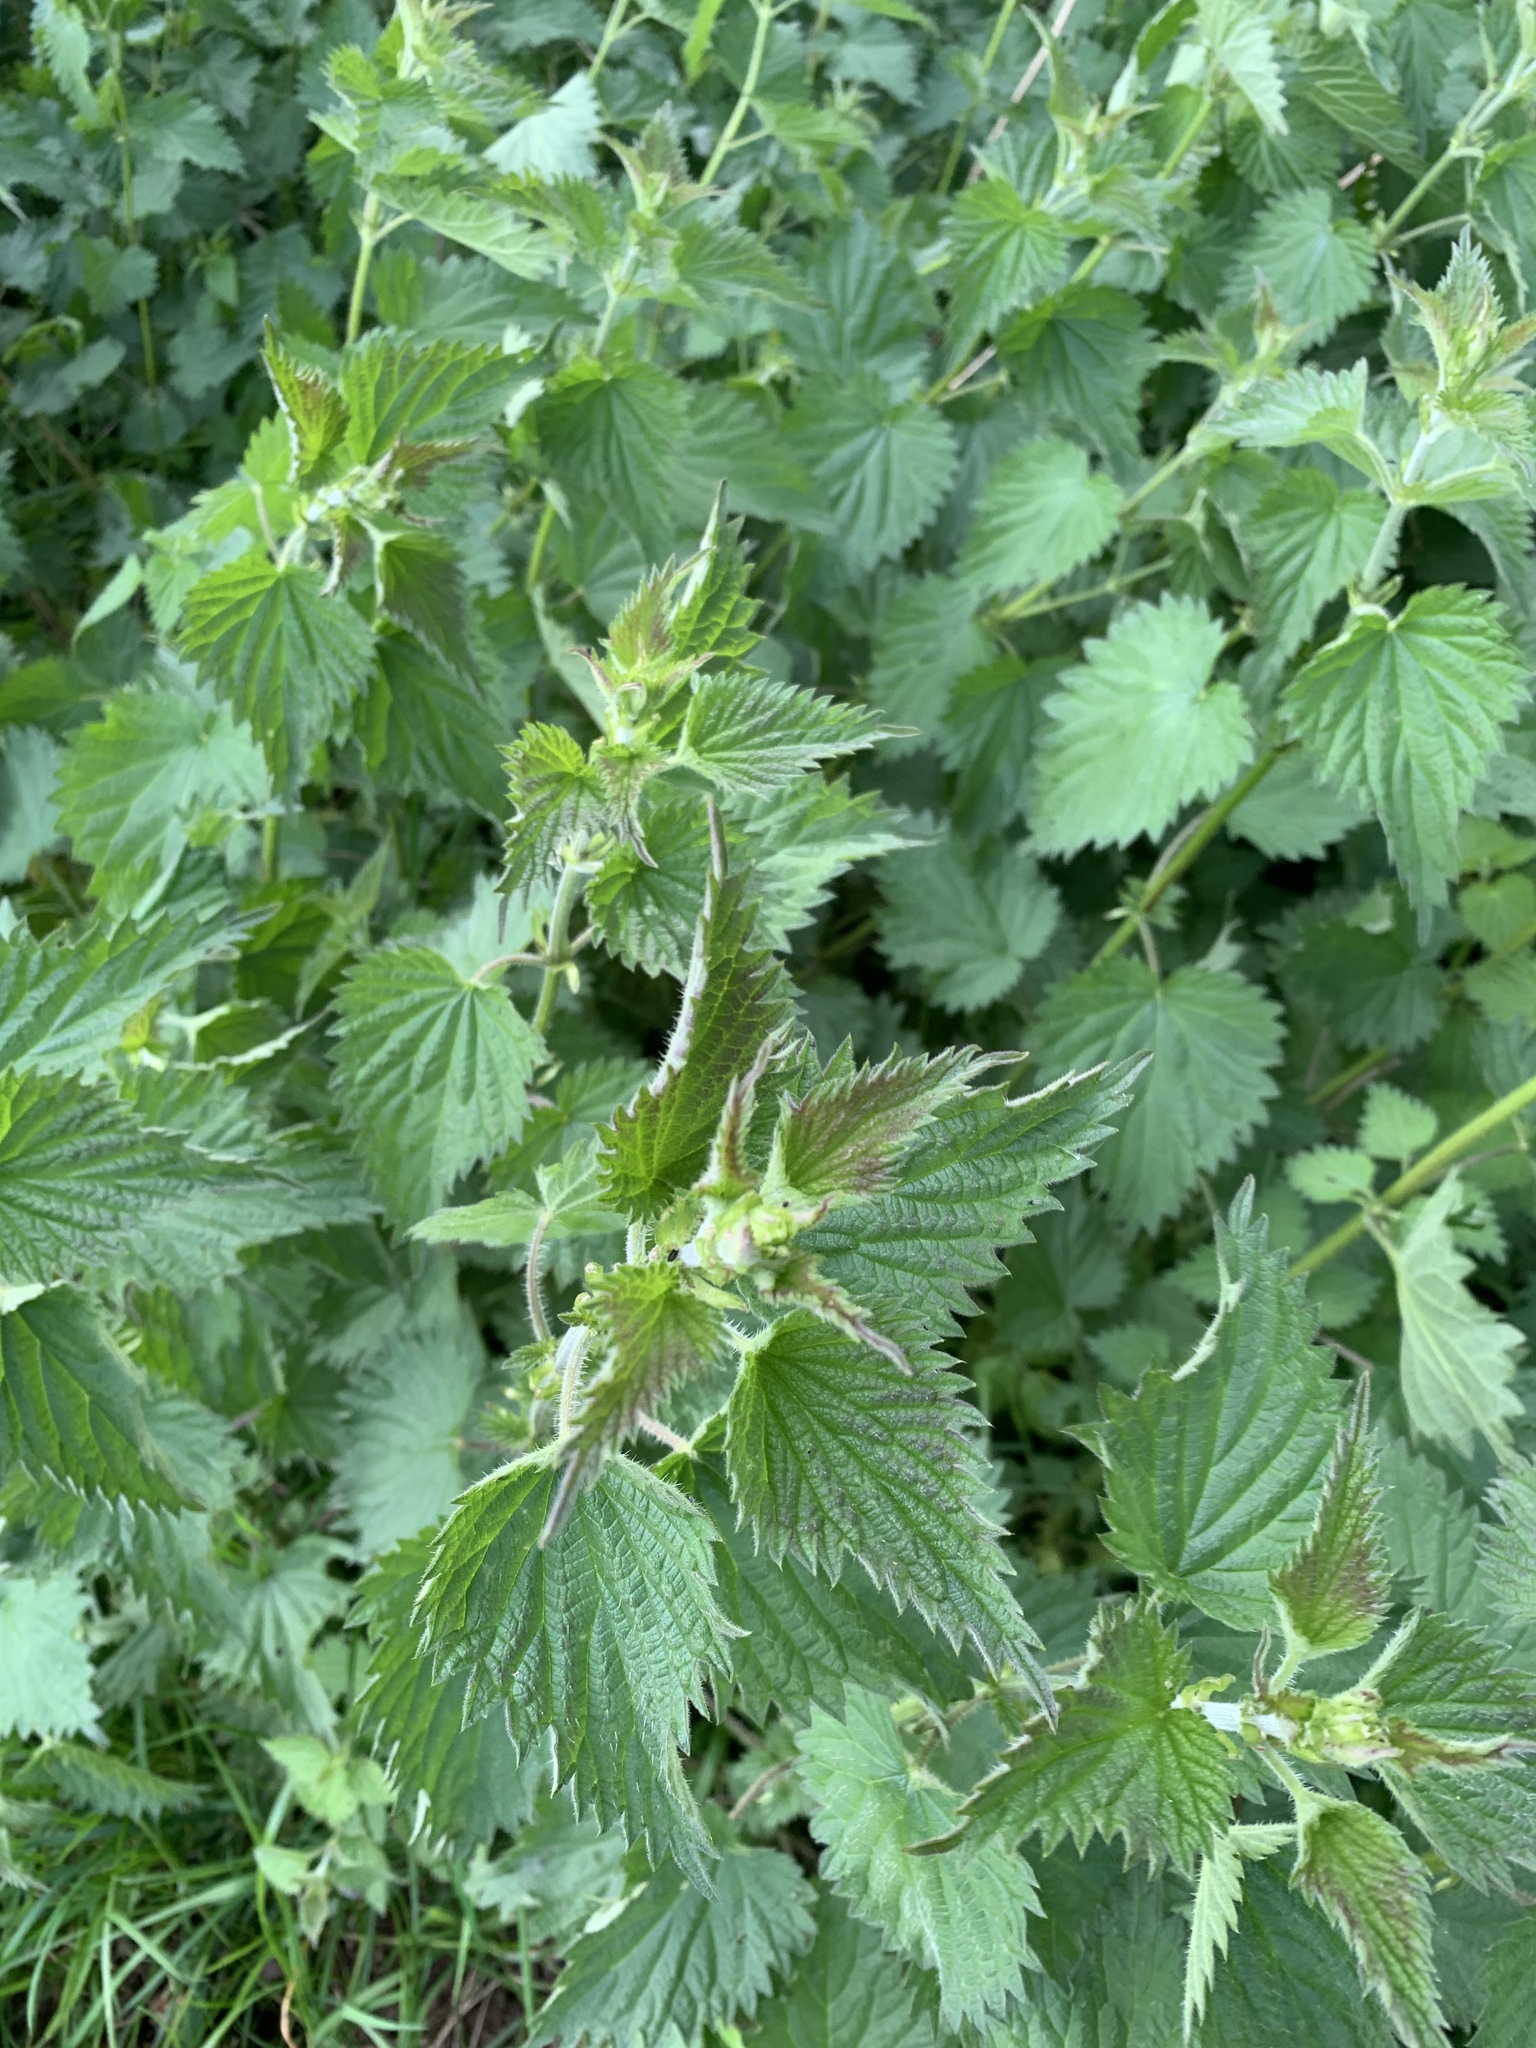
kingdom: Plantae
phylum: Tracheophyta
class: Magnoliopsida
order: Rosales
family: Urticaceae
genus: Urtica
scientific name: Urtica dioica
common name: Common nettle
